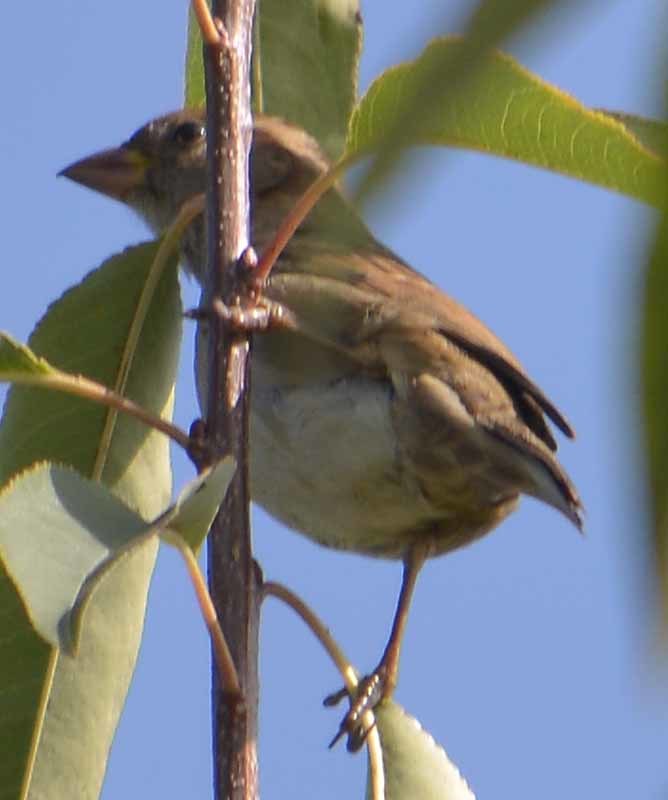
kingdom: Animalia
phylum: Chordata
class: Aves
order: Passeriformes
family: Passeridae
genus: Passer
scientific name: Passer domesticus
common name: House sparrow
